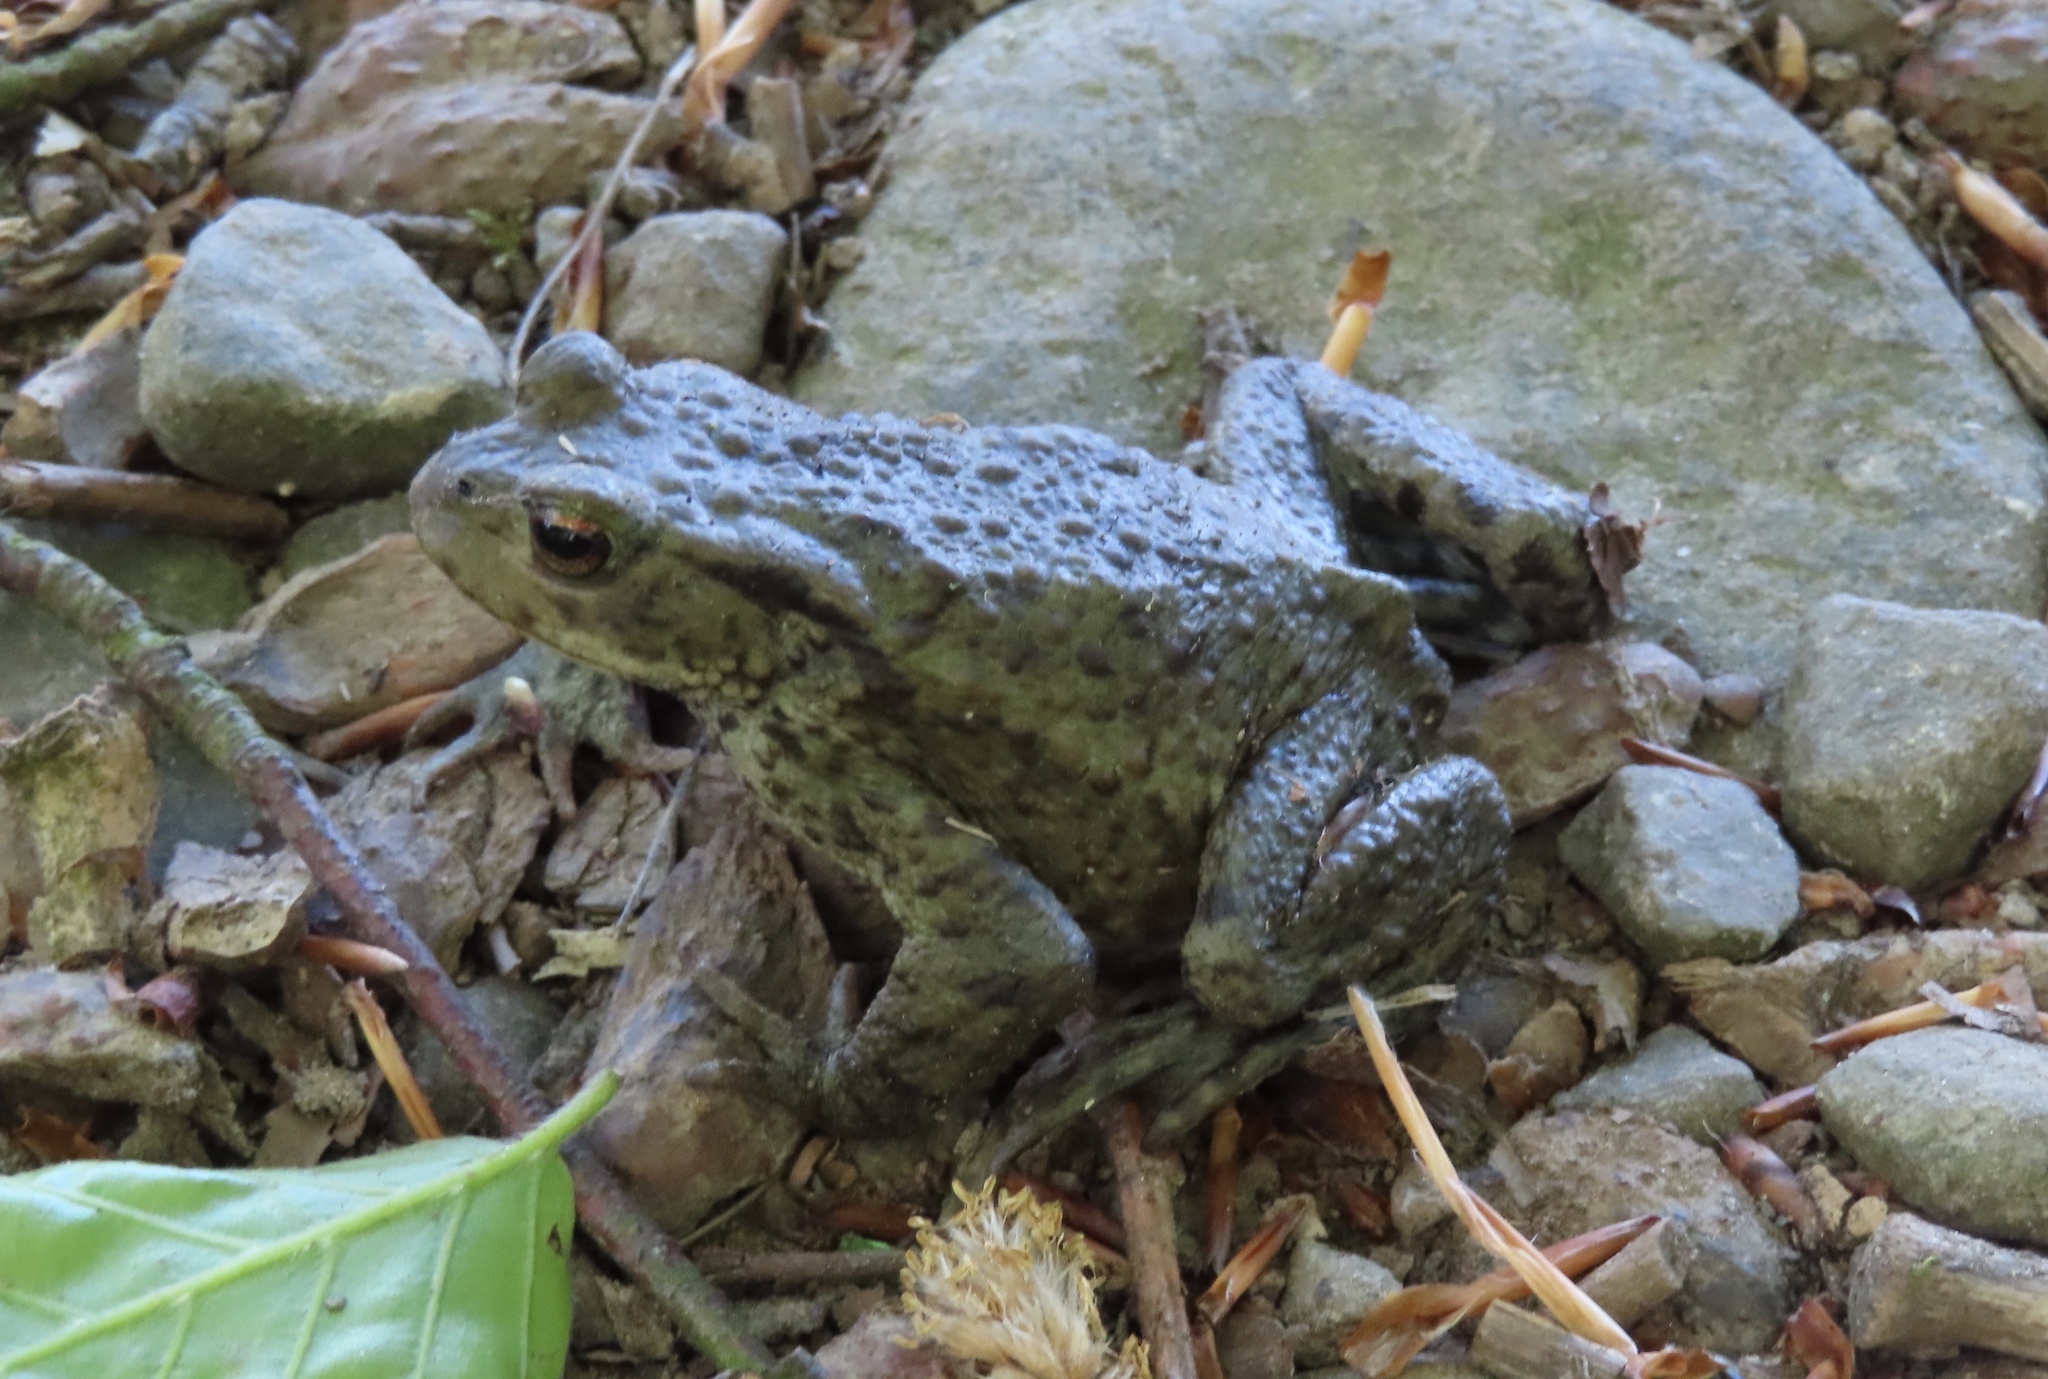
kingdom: Animalia
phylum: Chordata
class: Amphibia
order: Anura
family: Bufonidae
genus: Bufo
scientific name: Bufo bufo
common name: Common toad
